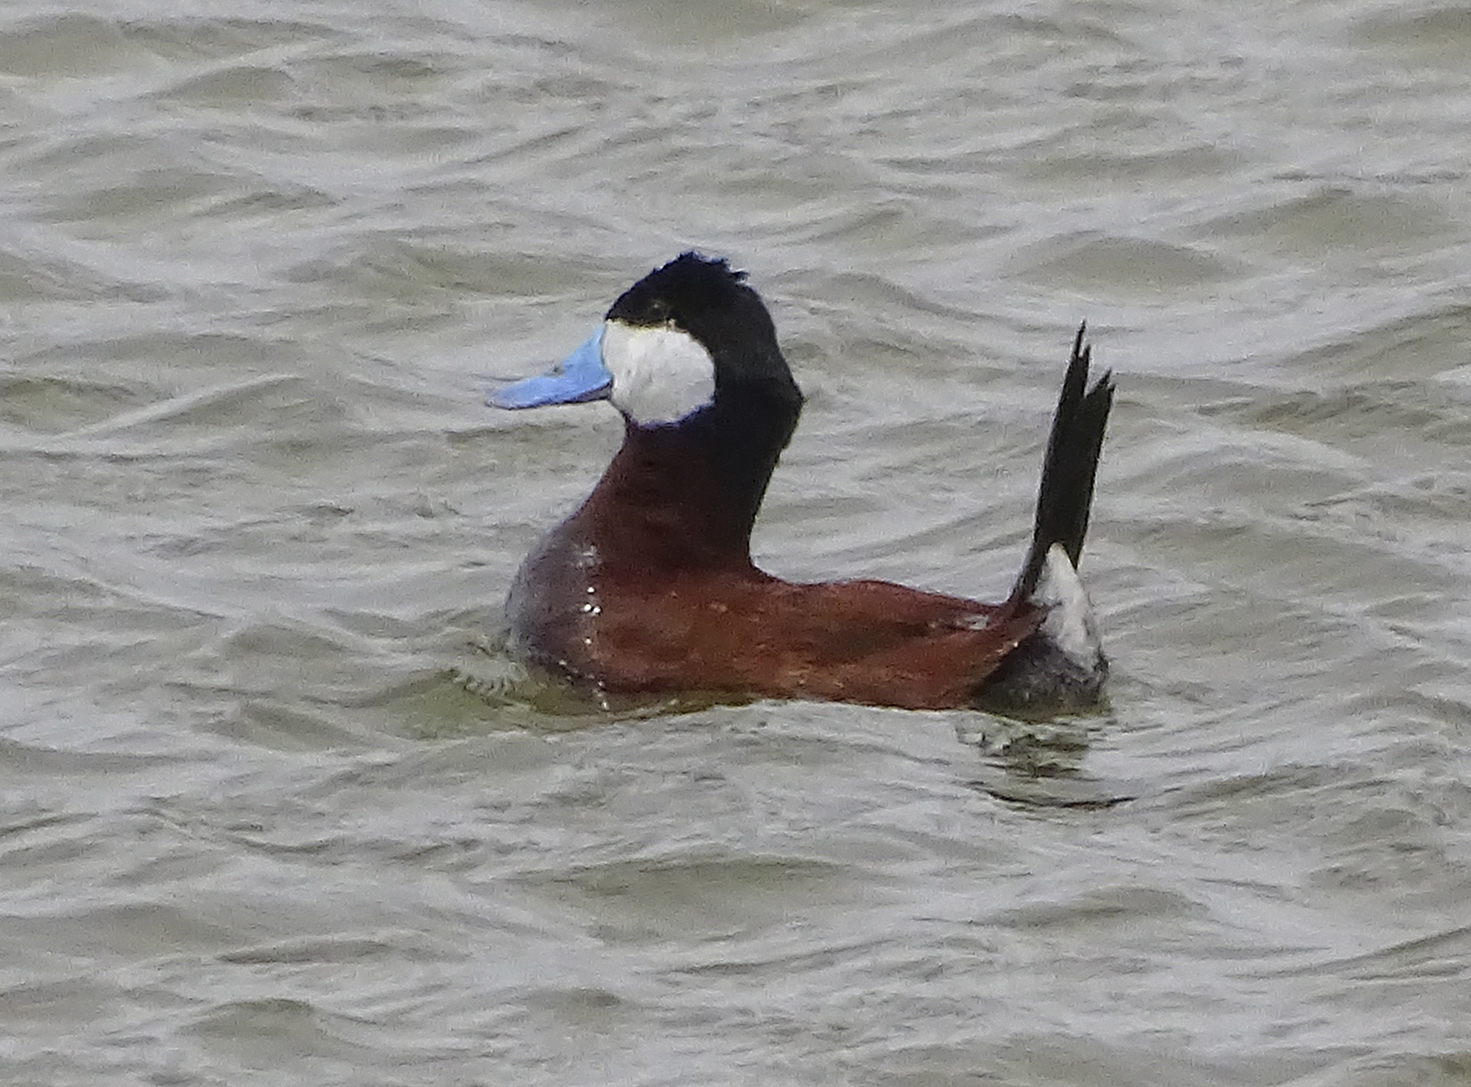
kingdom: Animalia
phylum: Chordata
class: Aves
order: Anseriformes
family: Anatidae
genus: Oxyura
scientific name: Oxyura jamaicensis
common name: Ruddy duck
